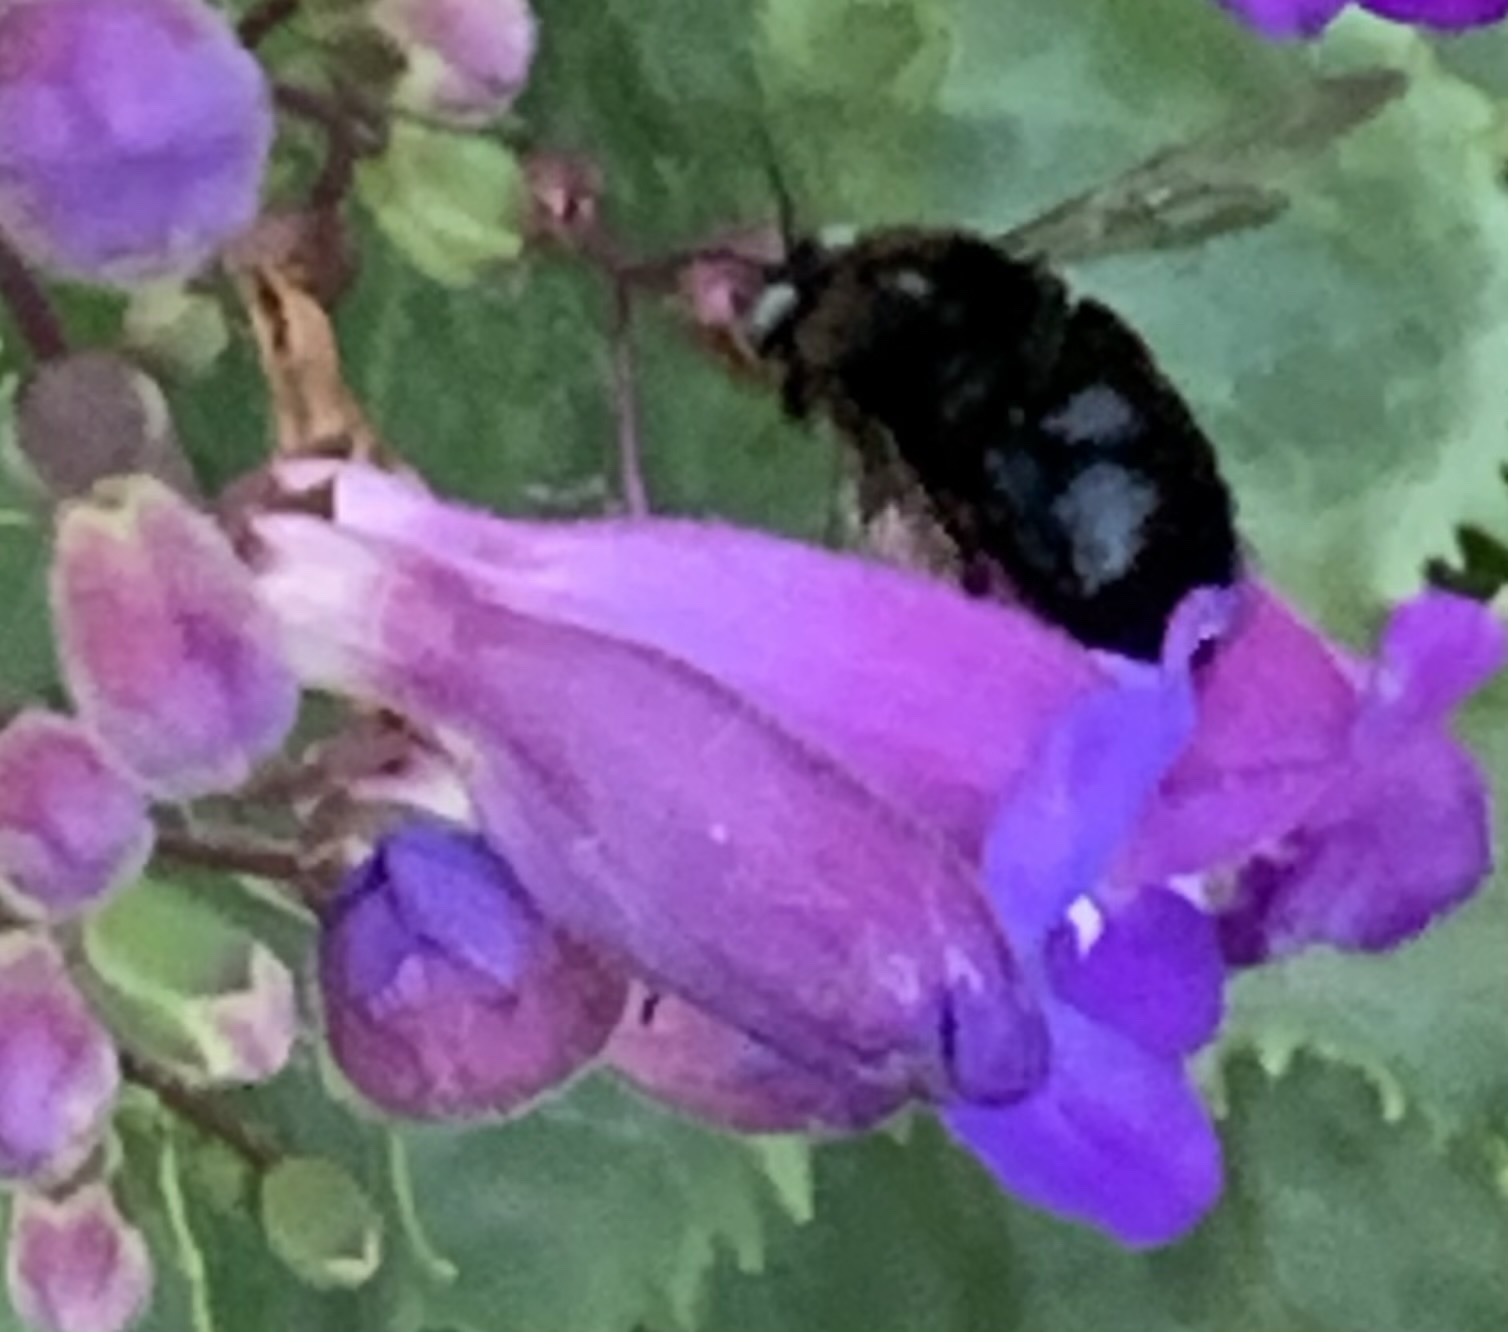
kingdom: Animalia
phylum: Arthropoda
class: Insecta
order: Hymenoptera
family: Apidae
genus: Xylocopa
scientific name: Xylocopa tabaniformis
